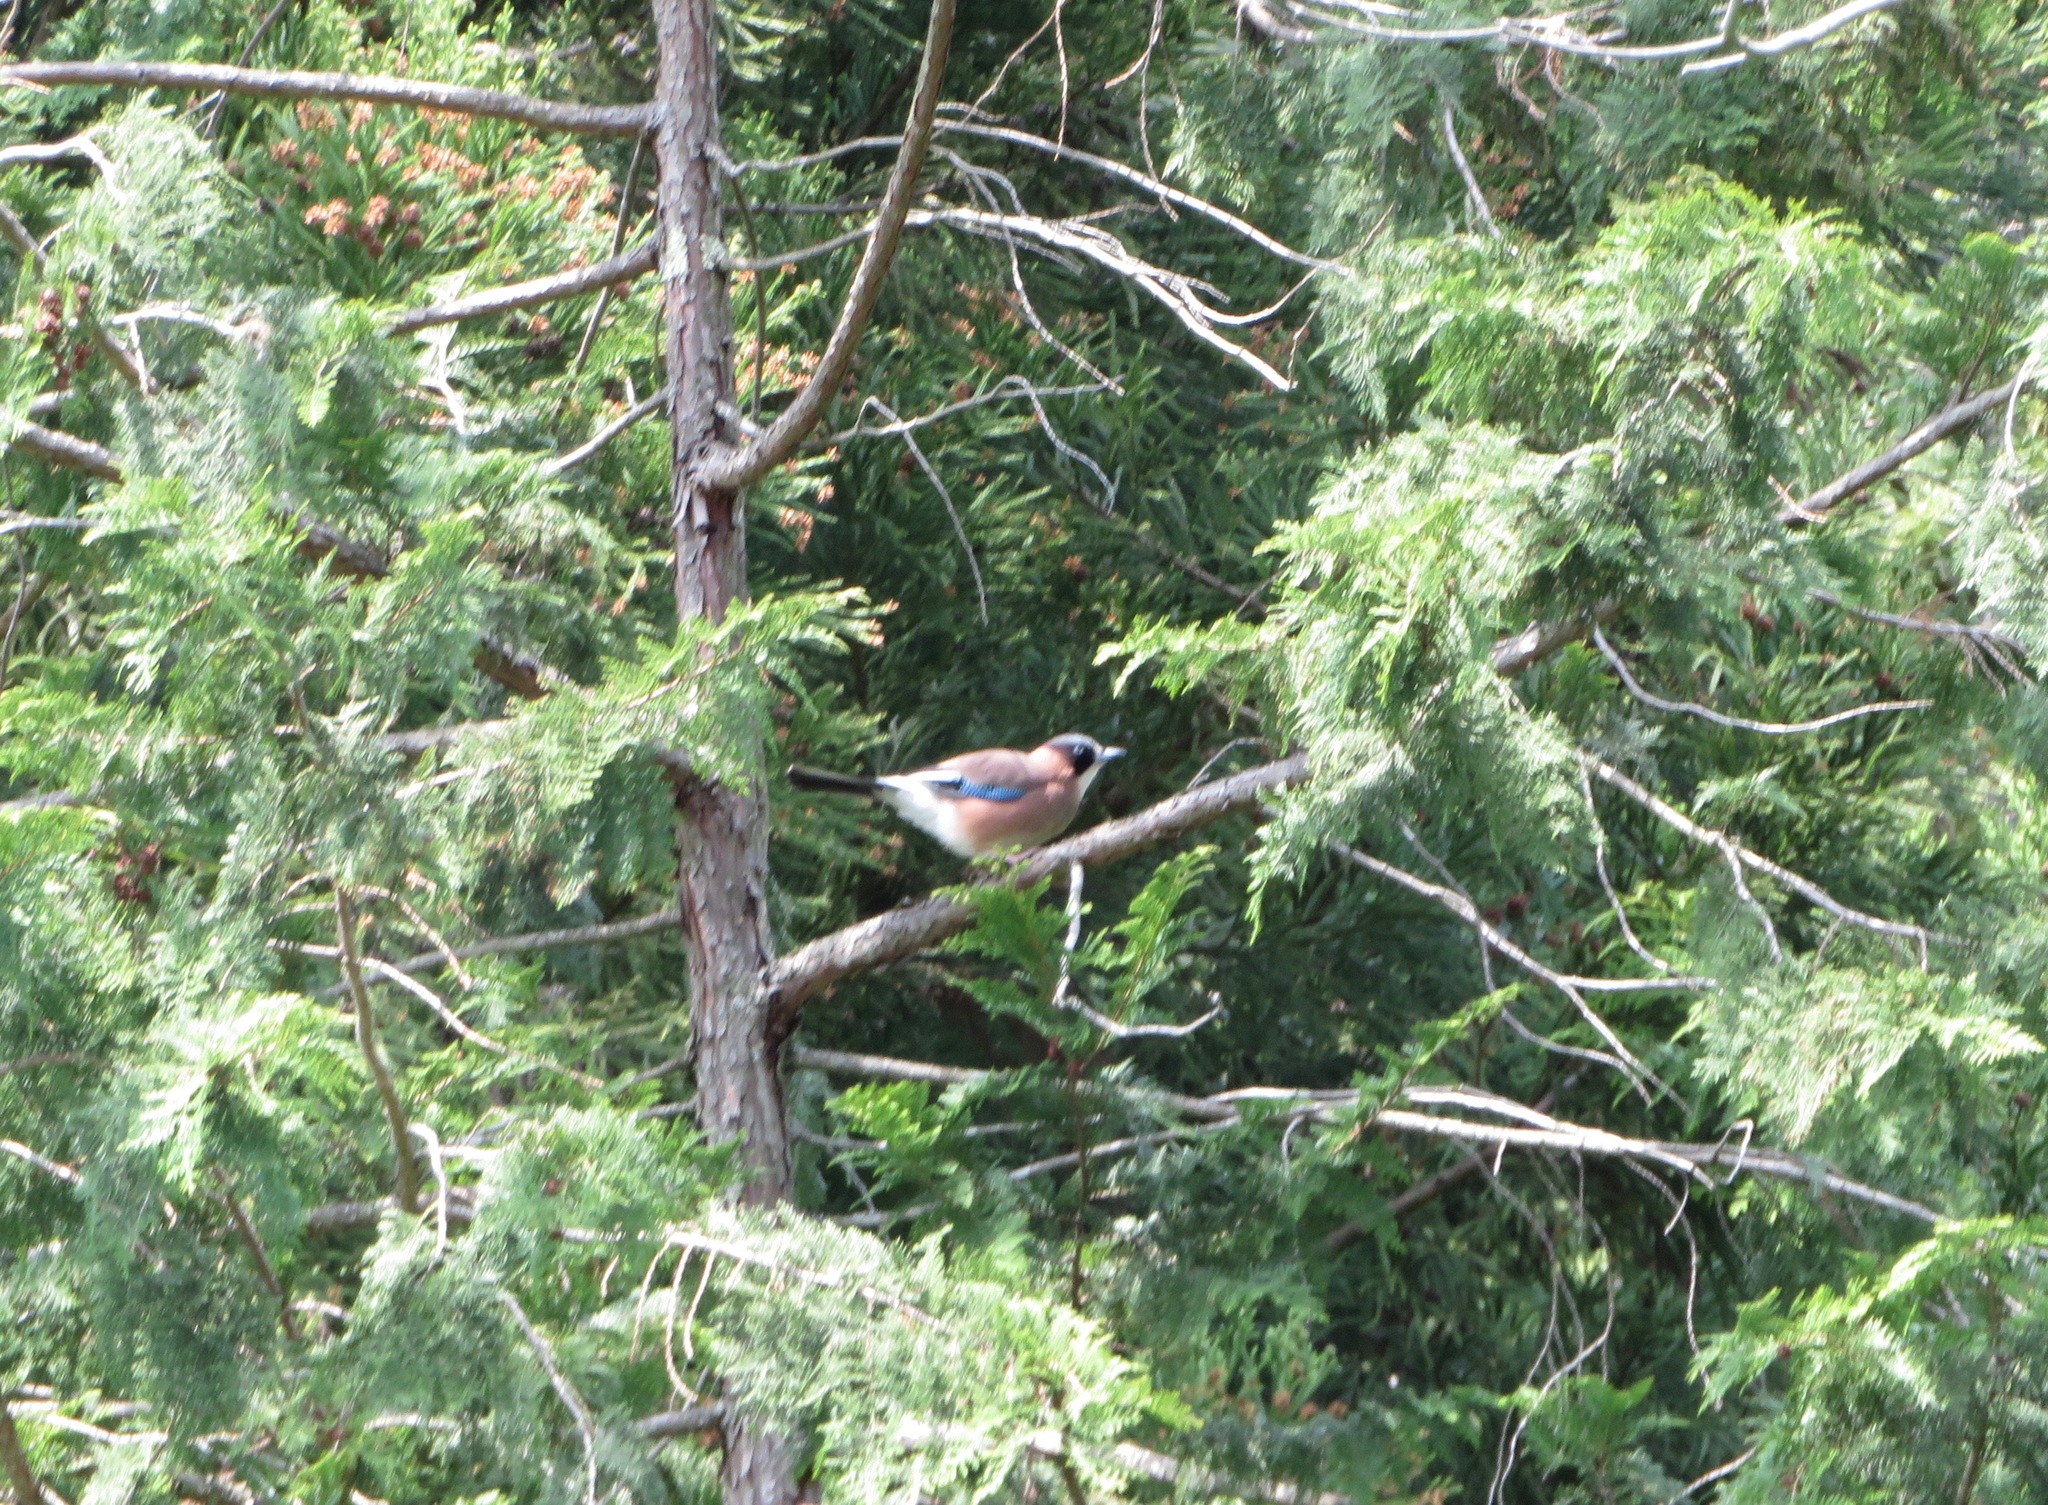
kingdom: Animalia
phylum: Chordata
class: Aves
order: Passeriformes
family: Corvidae
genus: Garrulus
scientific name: Garrulus glandarius
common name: Eurasian jay
